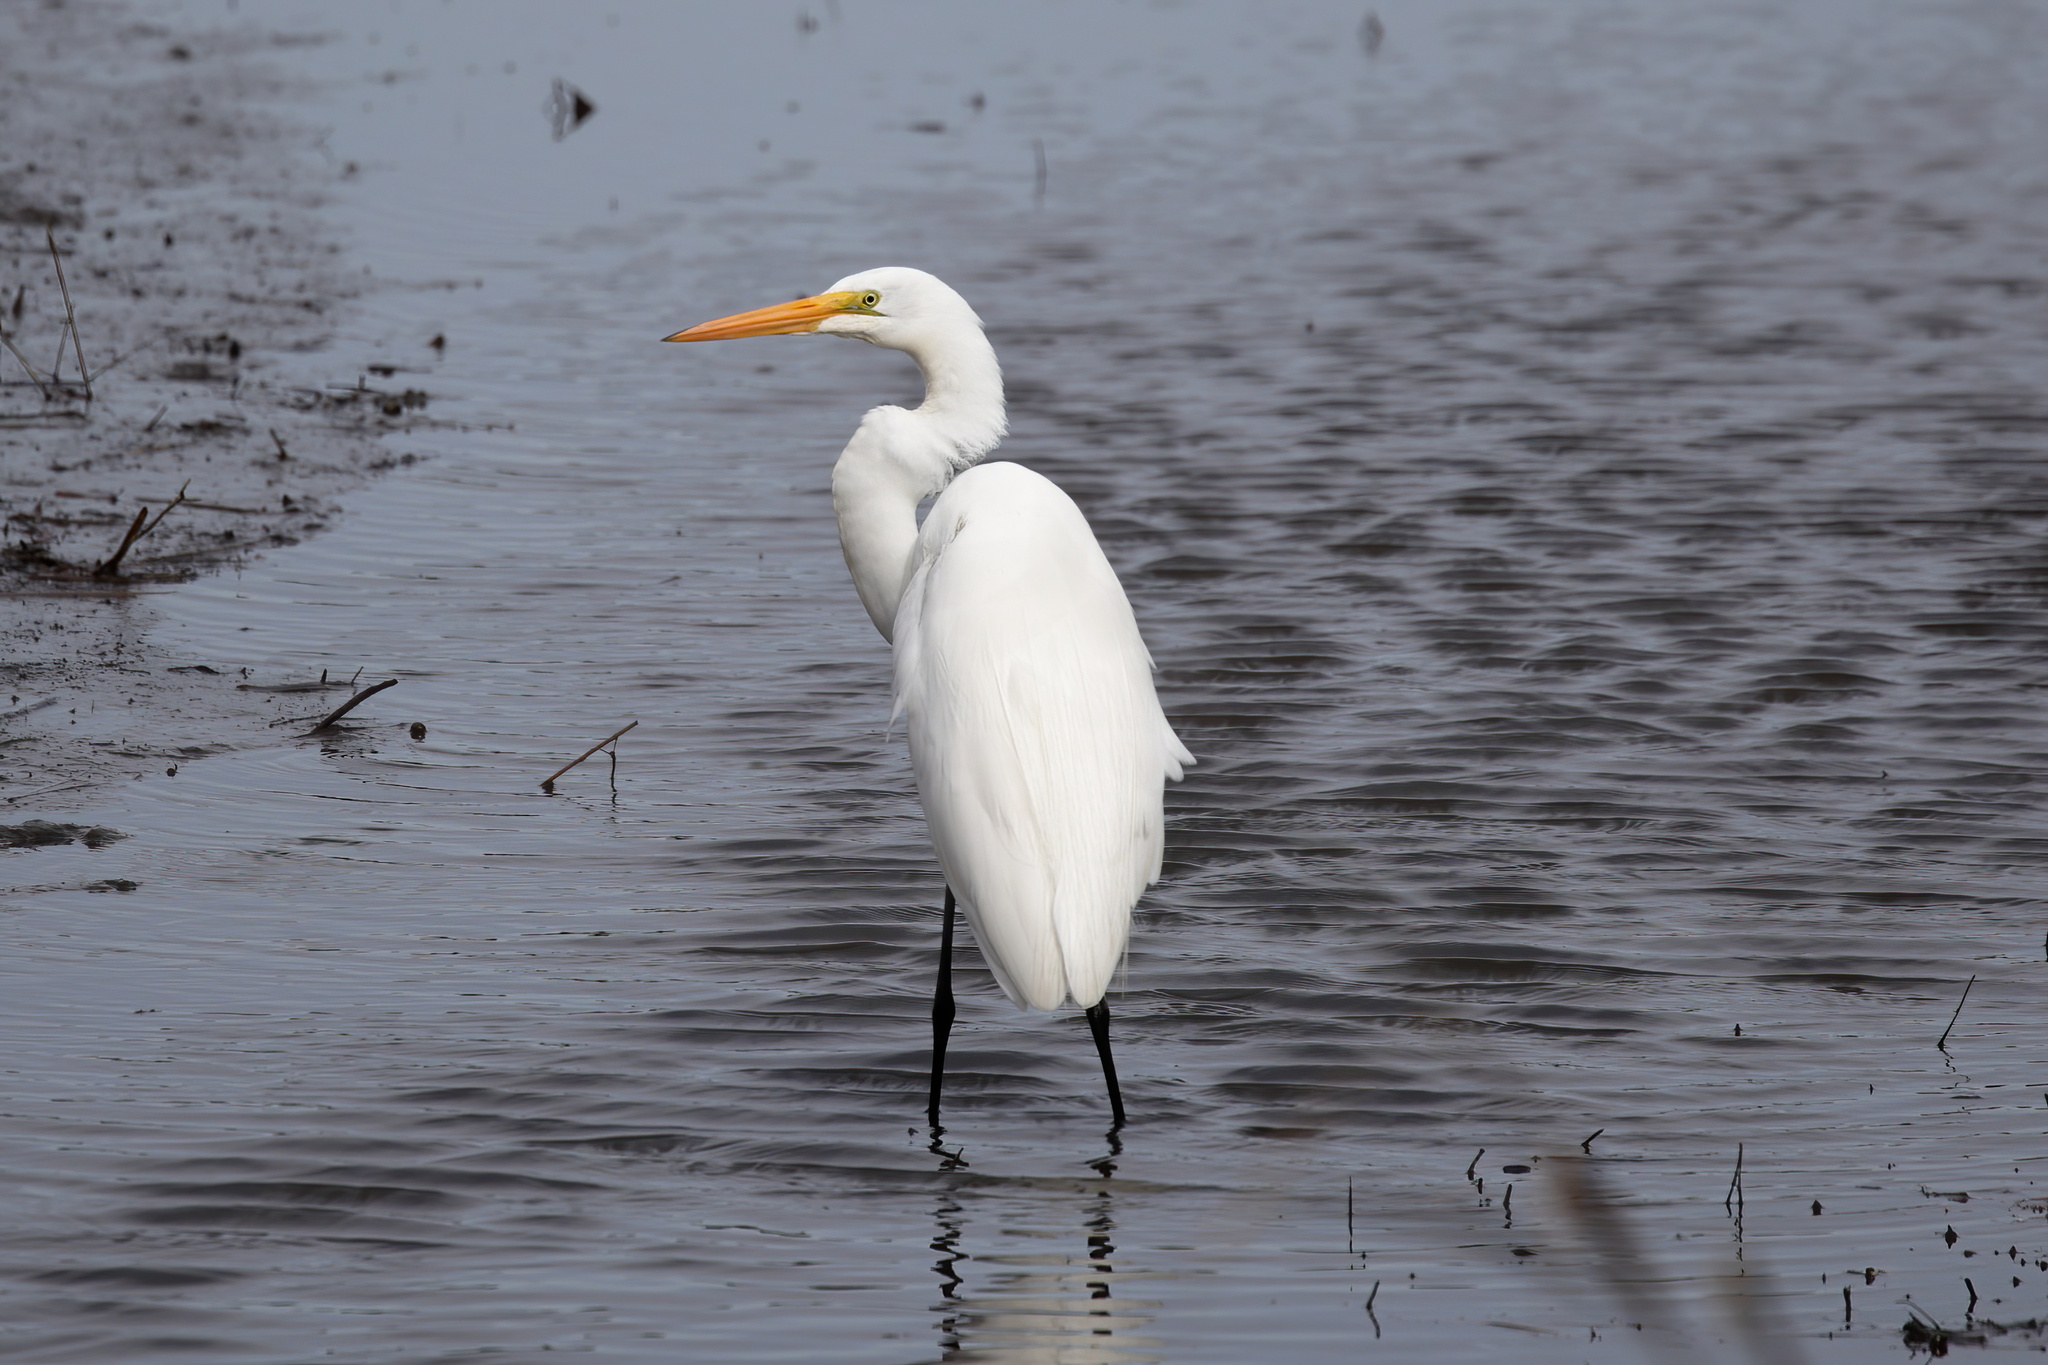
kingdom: Animalia
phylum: Chordata
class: Aves
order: Pelecaniformes
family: Ardeidae
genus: Ardea
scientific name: Ardea alba
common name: Great egret
